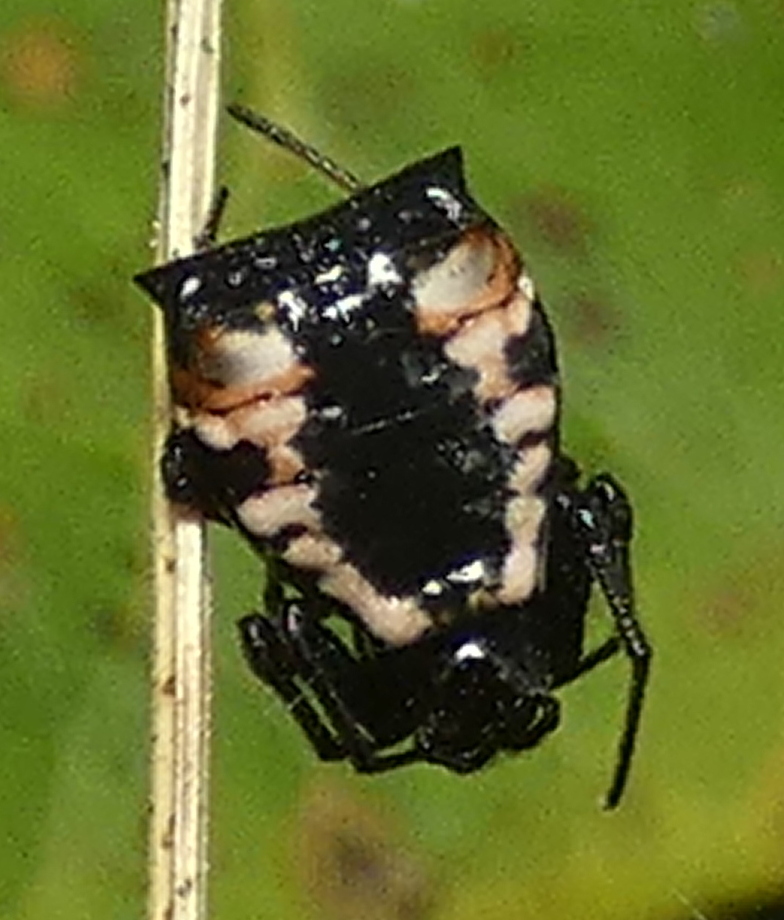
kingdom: Animalia
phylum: Arthropoda
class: Arachnida
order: Araneae
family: Araneidae
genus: Micrathena
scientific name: Micrathena patruelis
